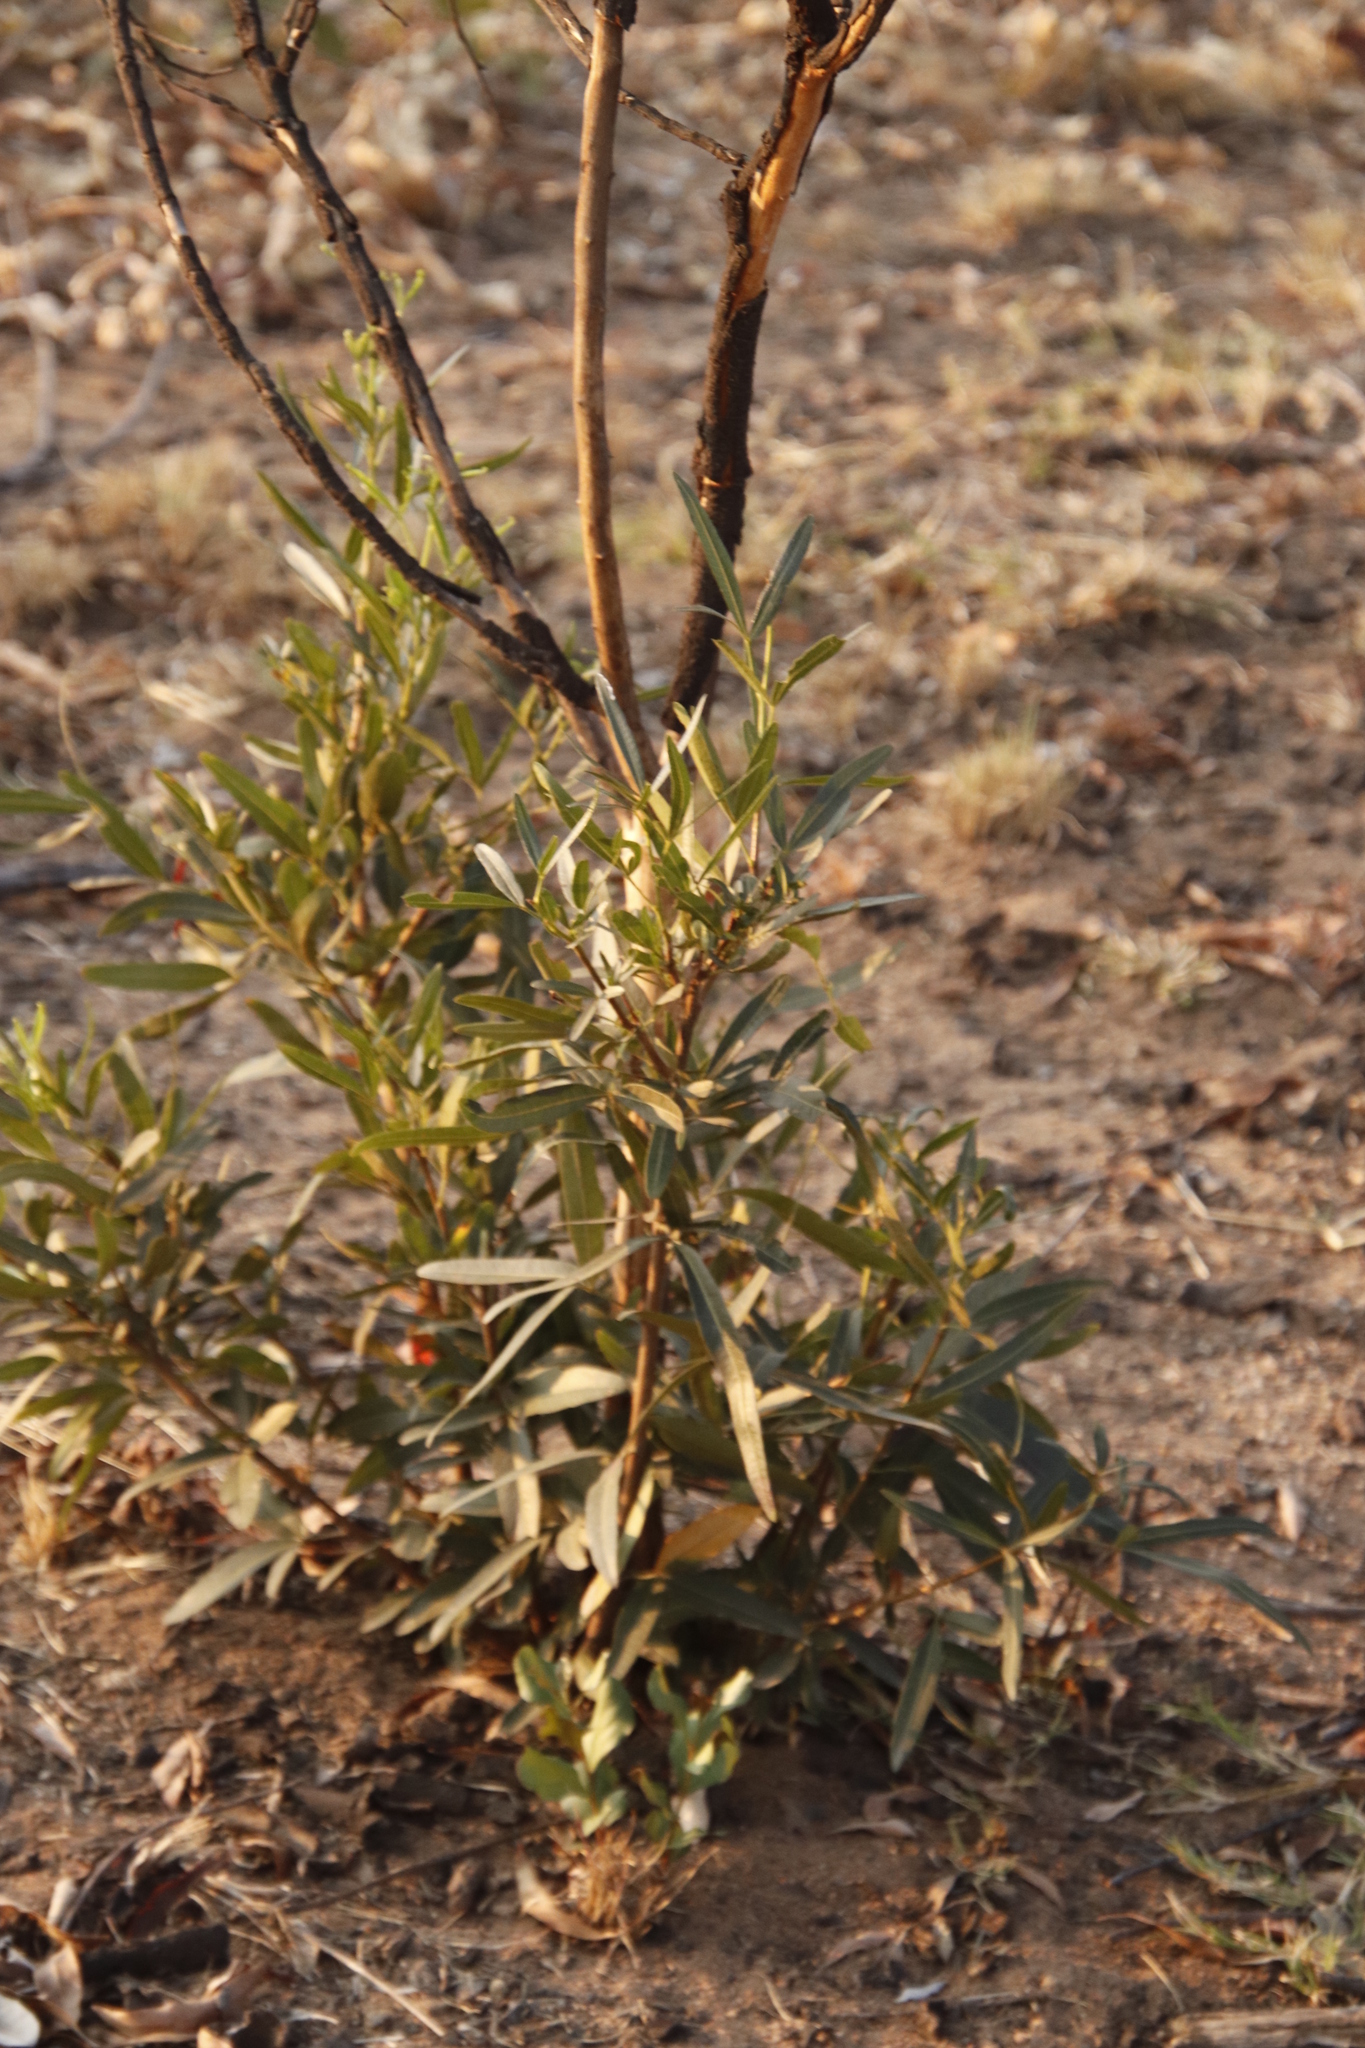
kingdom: Plantae
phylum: Tracheophyta
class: Magnoliopsida
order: Sapindales
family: Anacardiaceae
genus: Searsia
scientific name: Searsia lancea
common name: Cashew
